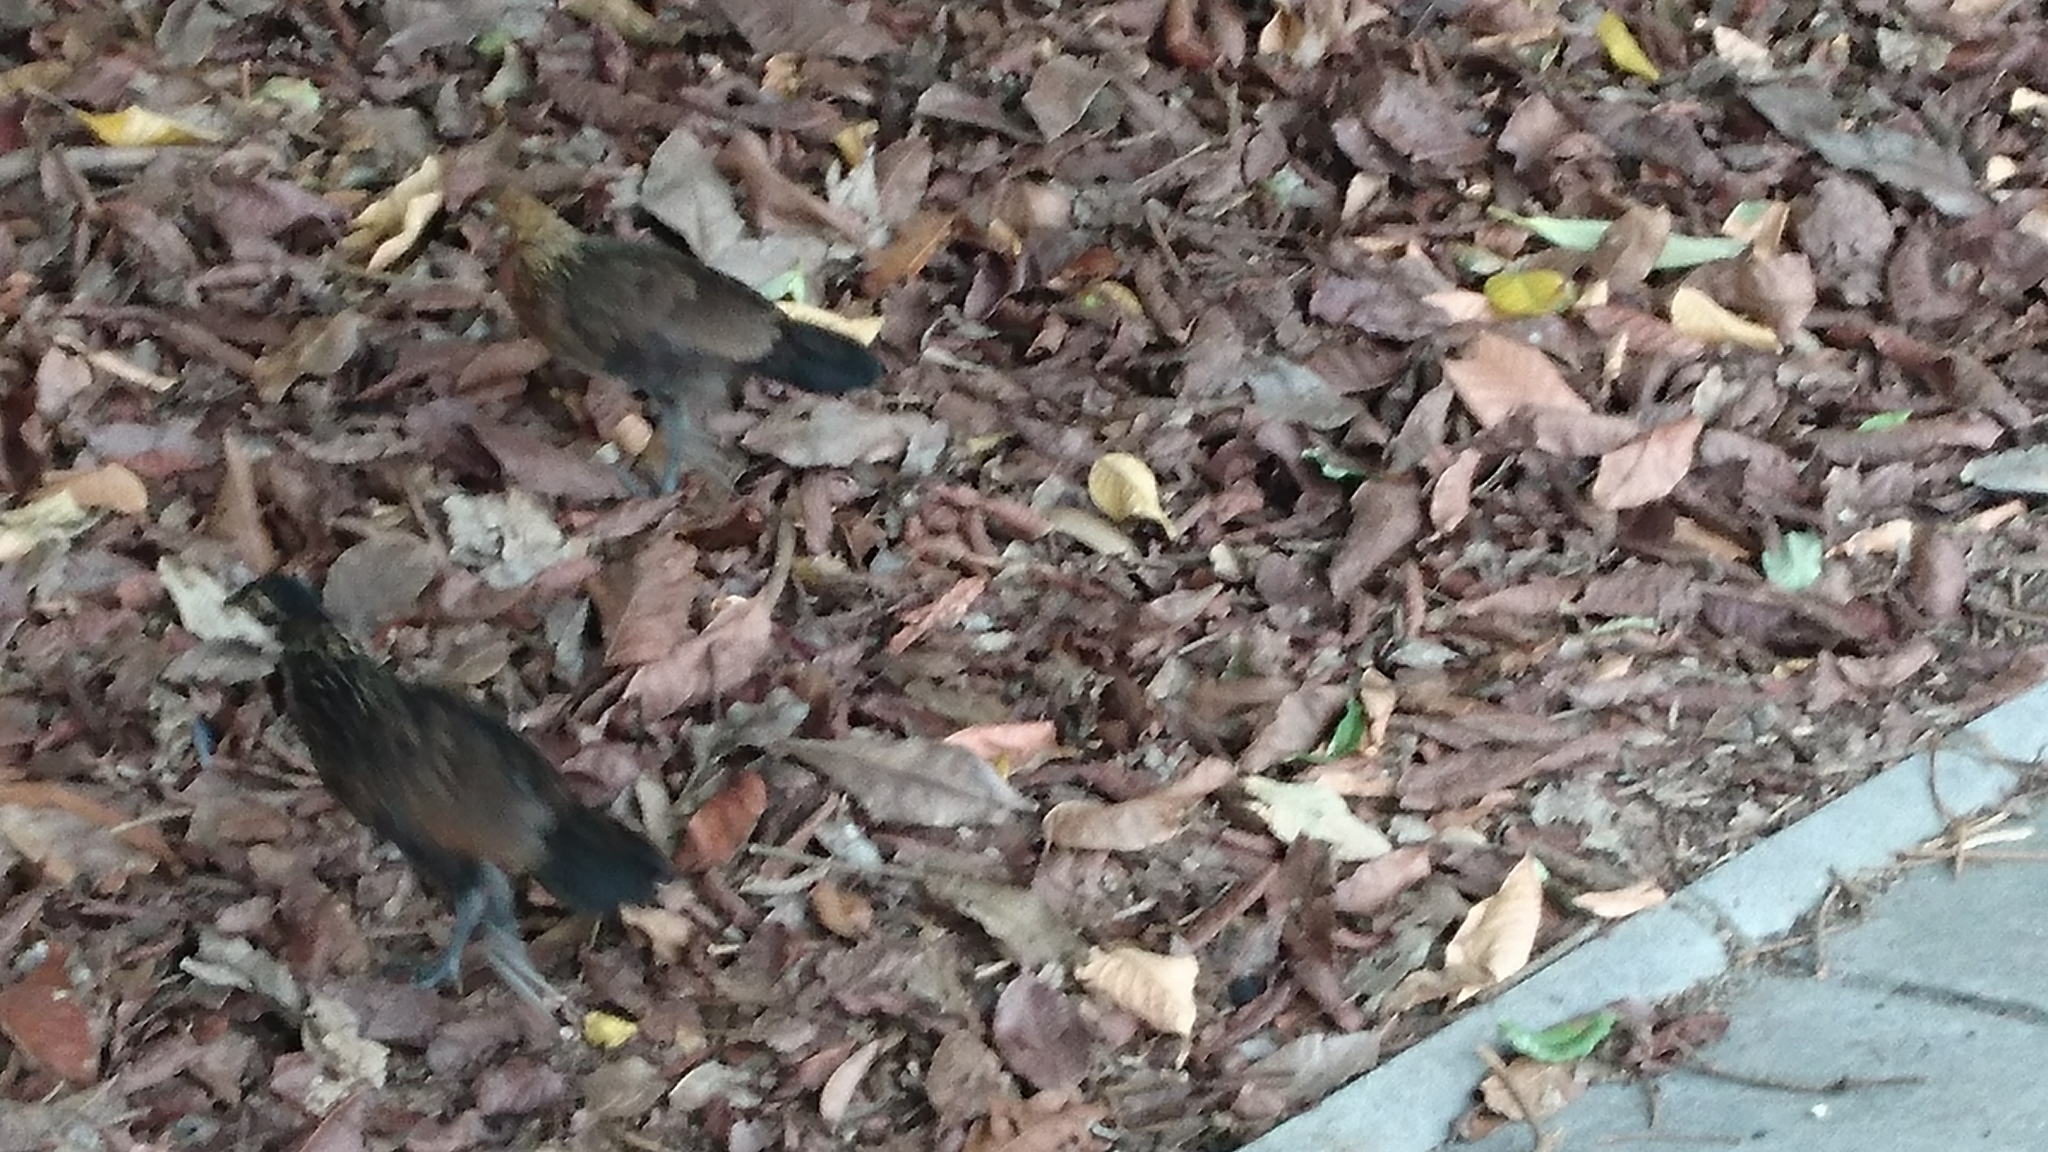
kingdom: Animalia
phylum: Chordata
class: Aves
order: Galliformes
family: Phasianidae
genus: Gallus
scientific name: Gallus gallus
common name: Red junglefowl
